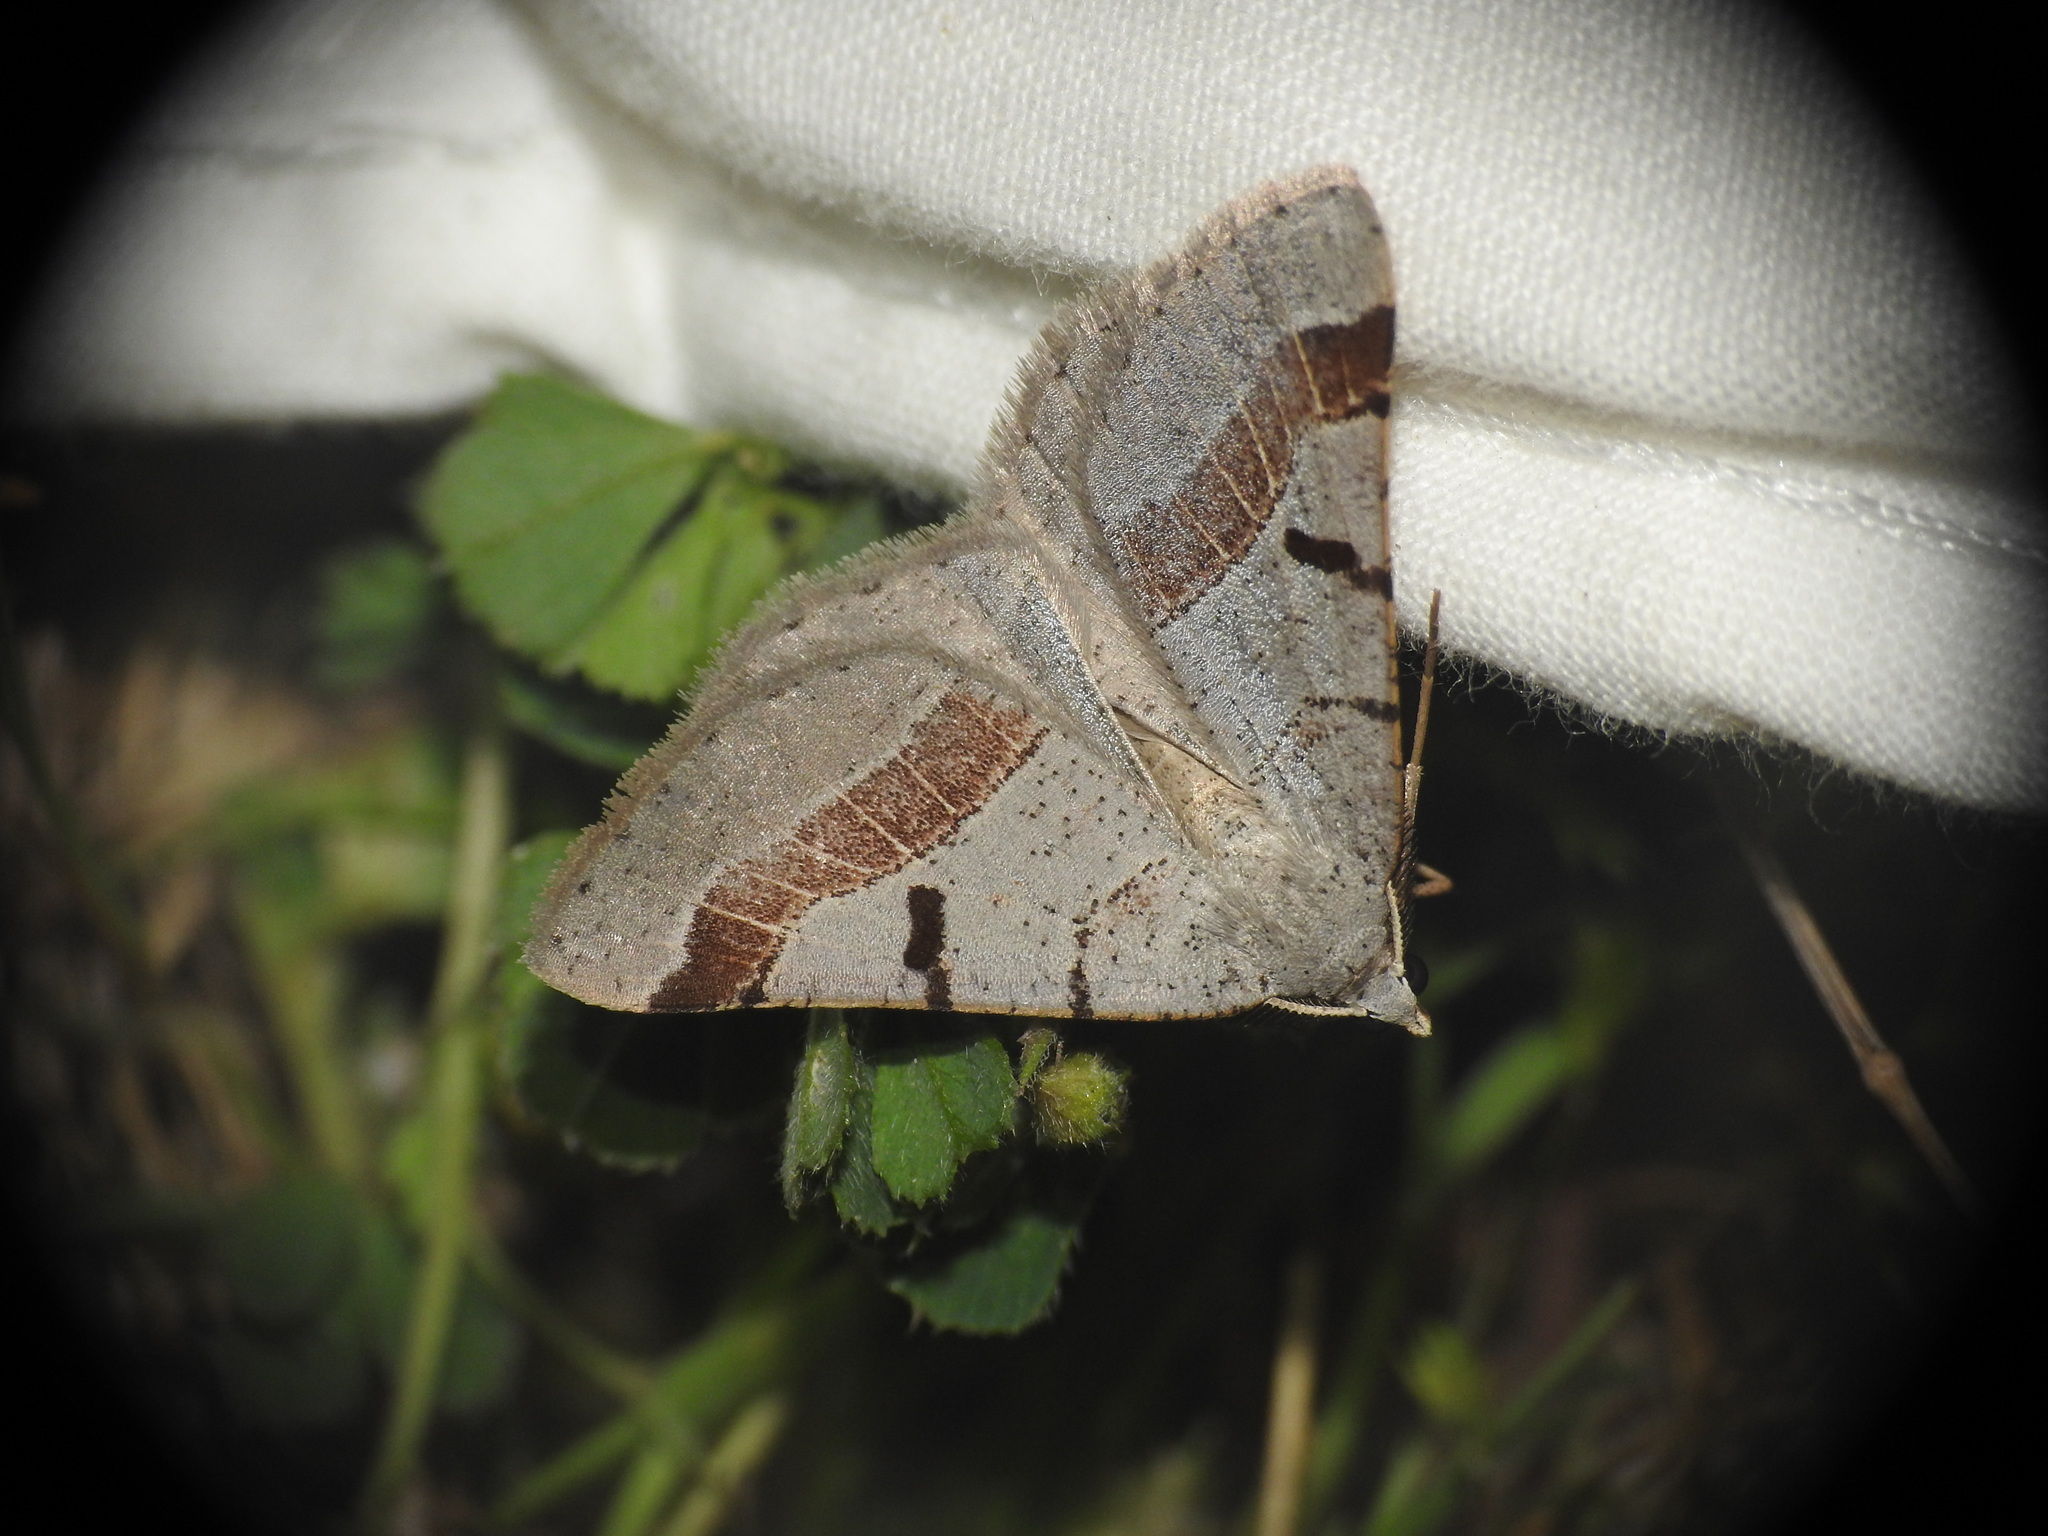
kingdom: Animalia
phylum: Arthropoda
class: Insecta
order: Lepidoptera
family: Geometridae
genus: Itame
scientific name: Itame vincularia
